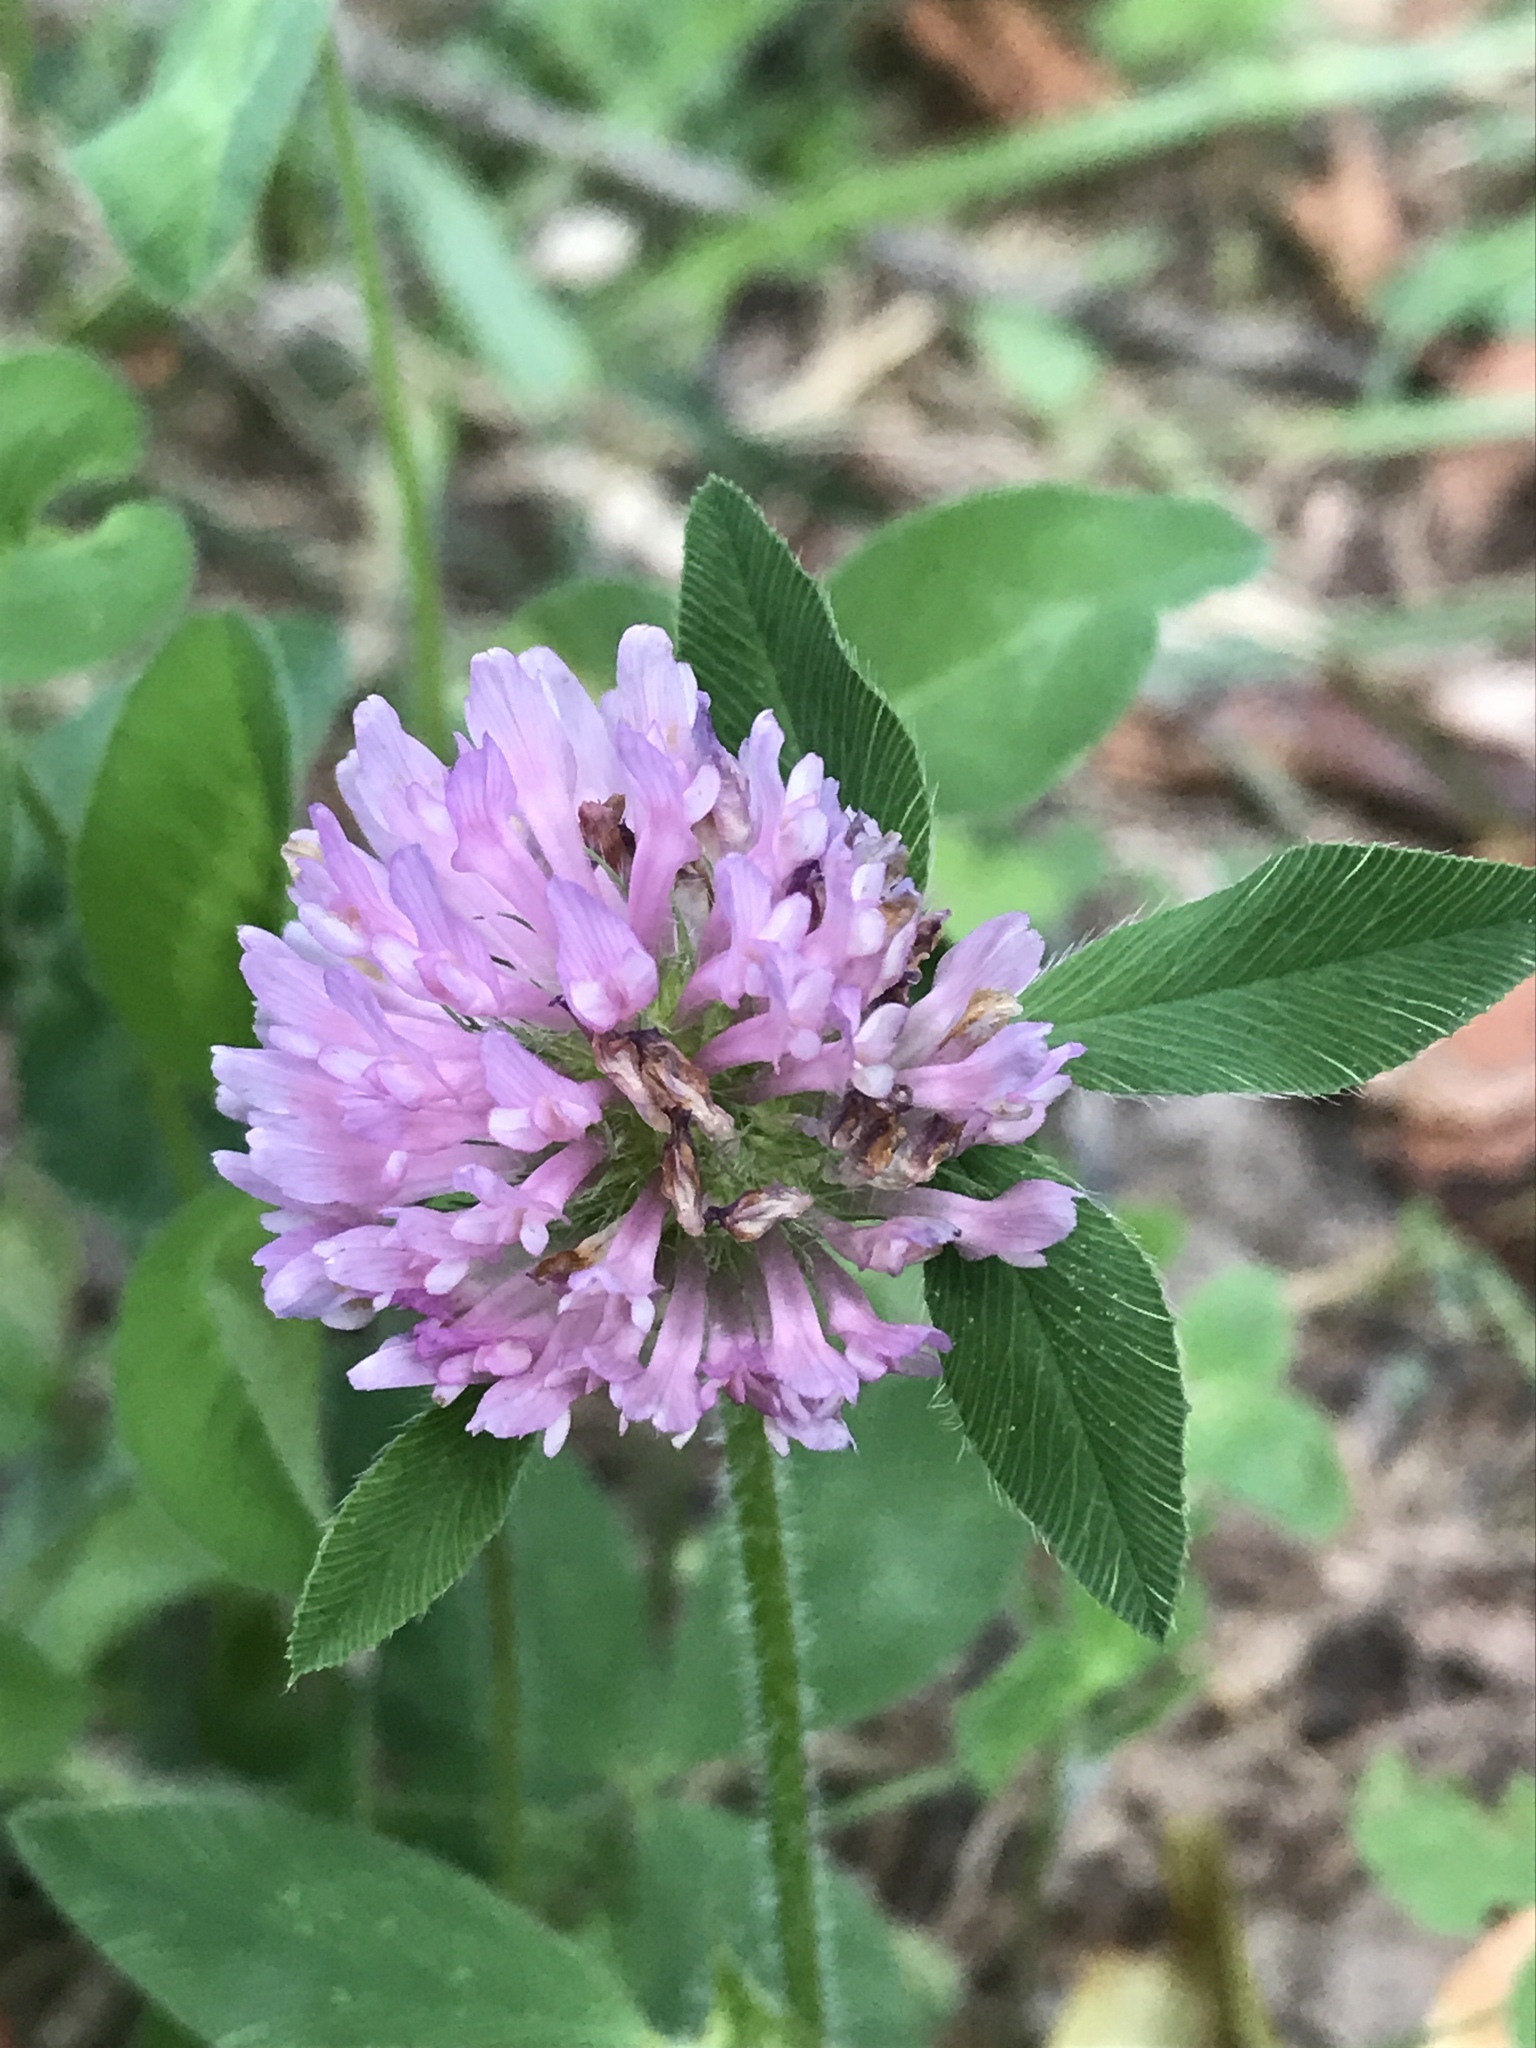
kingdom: Plantae
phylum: Tracheophyta
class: Magnoliopsida
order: Fabales
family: Fabaceae
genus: Trifolium
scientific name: Trifolium pratense
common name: Red clover
